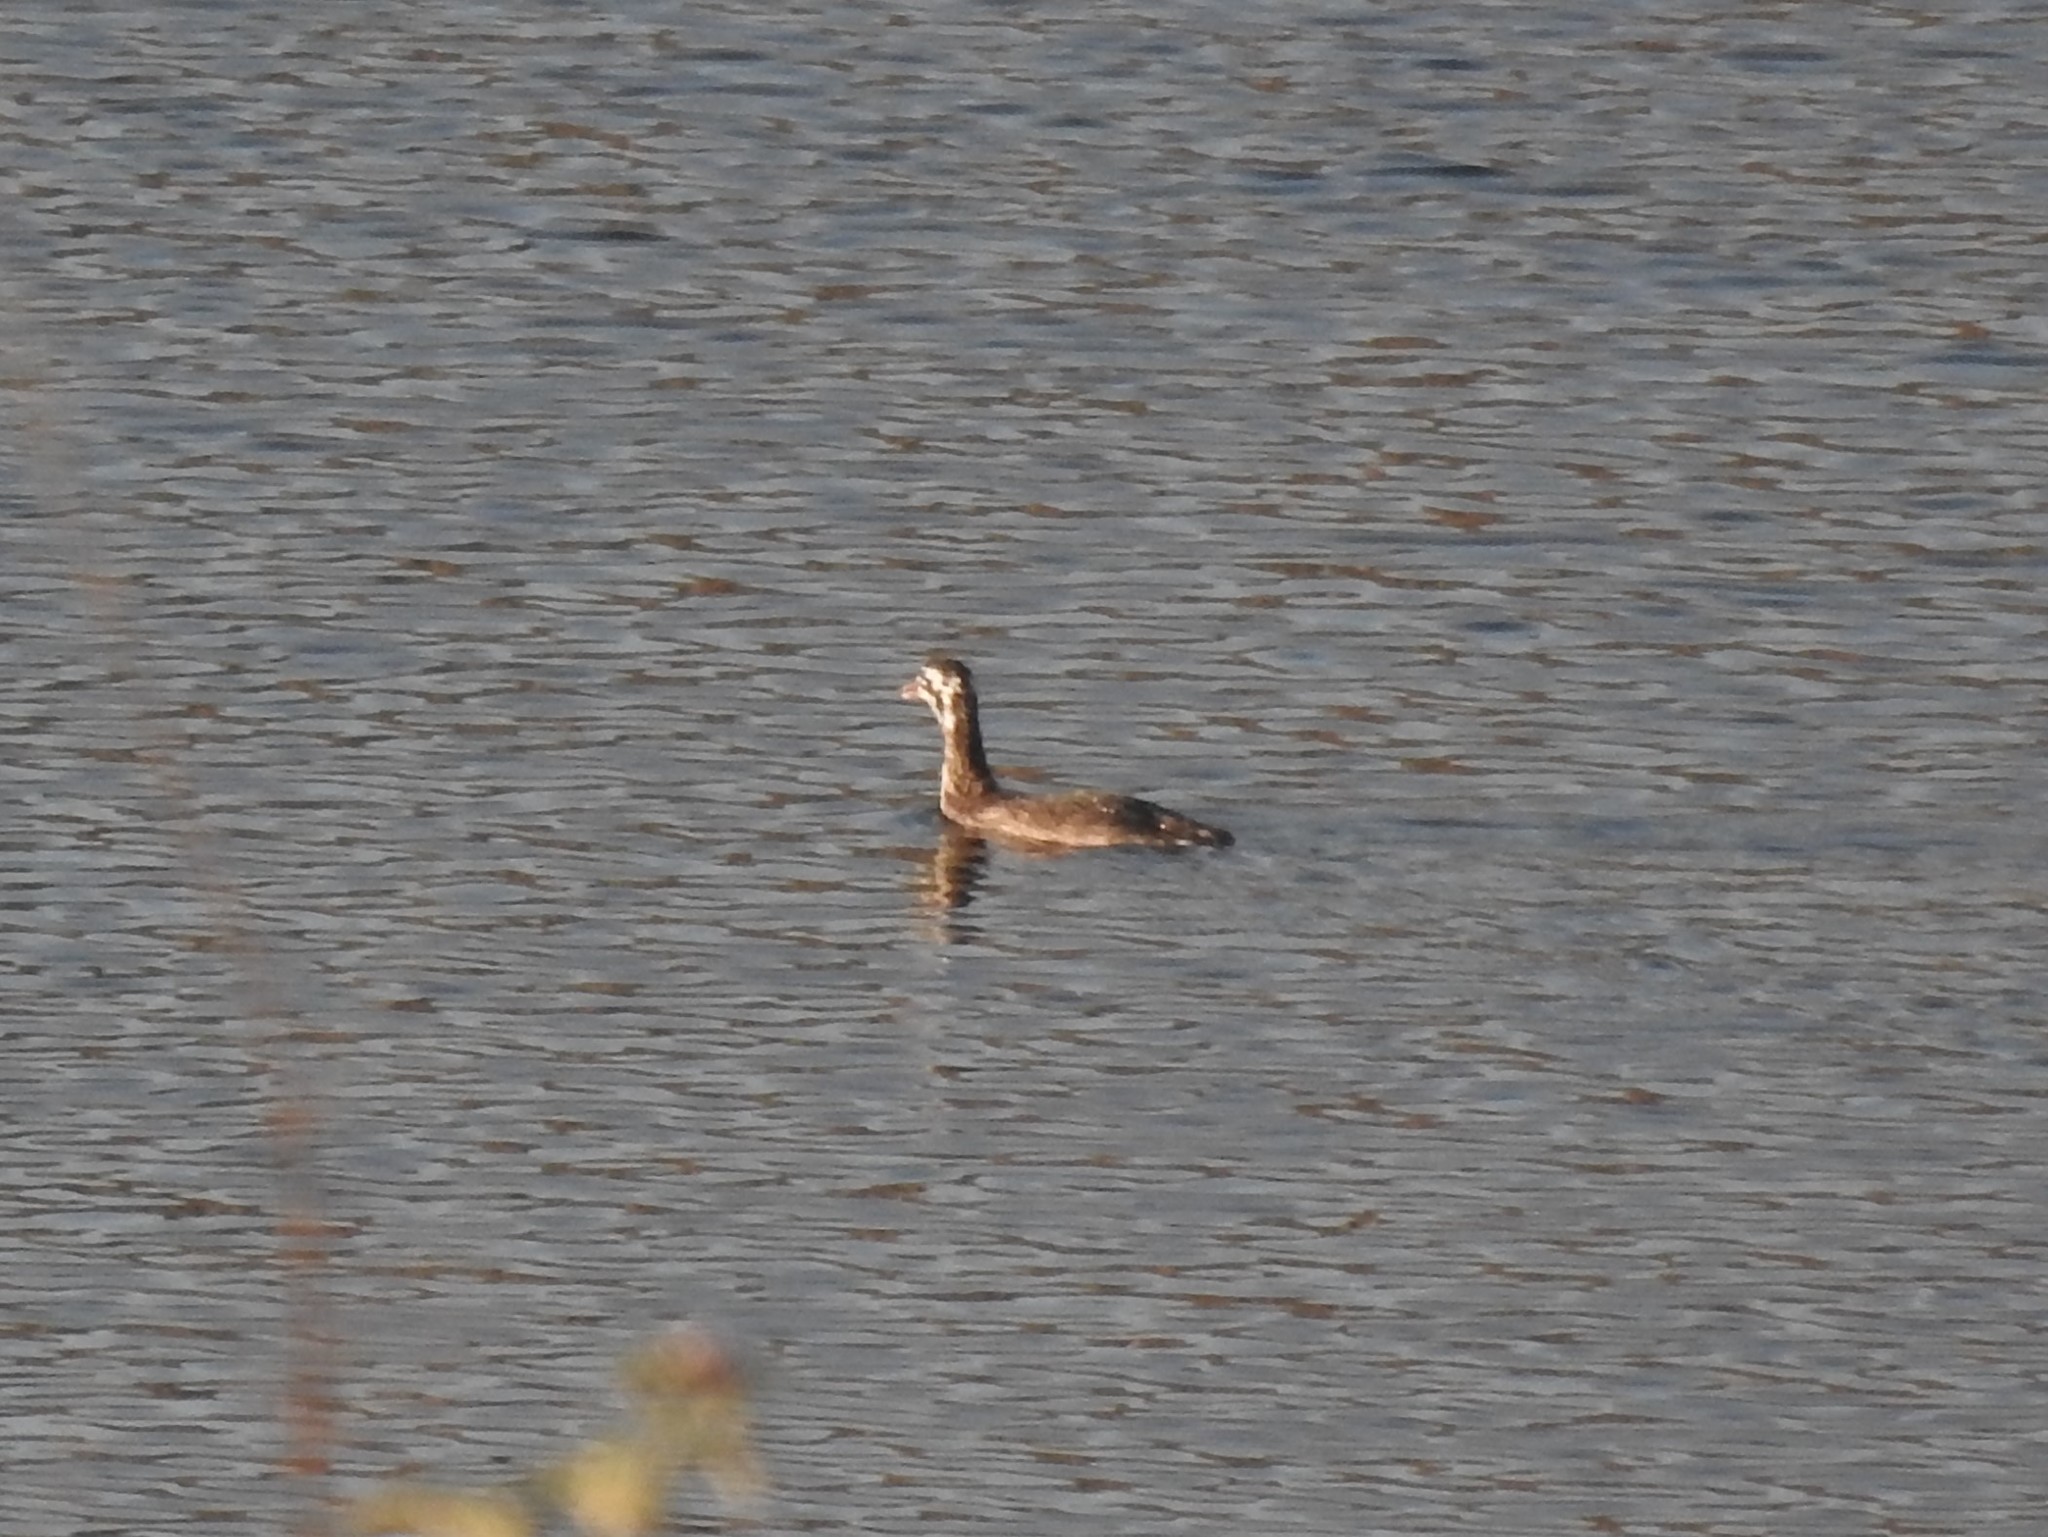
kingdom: Animalia
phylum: Chordata
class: Aves
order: Podicipediformes
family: Podicipedidae
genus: Podiceps
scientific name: Podiceps cristatus
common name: Great crested grebe
